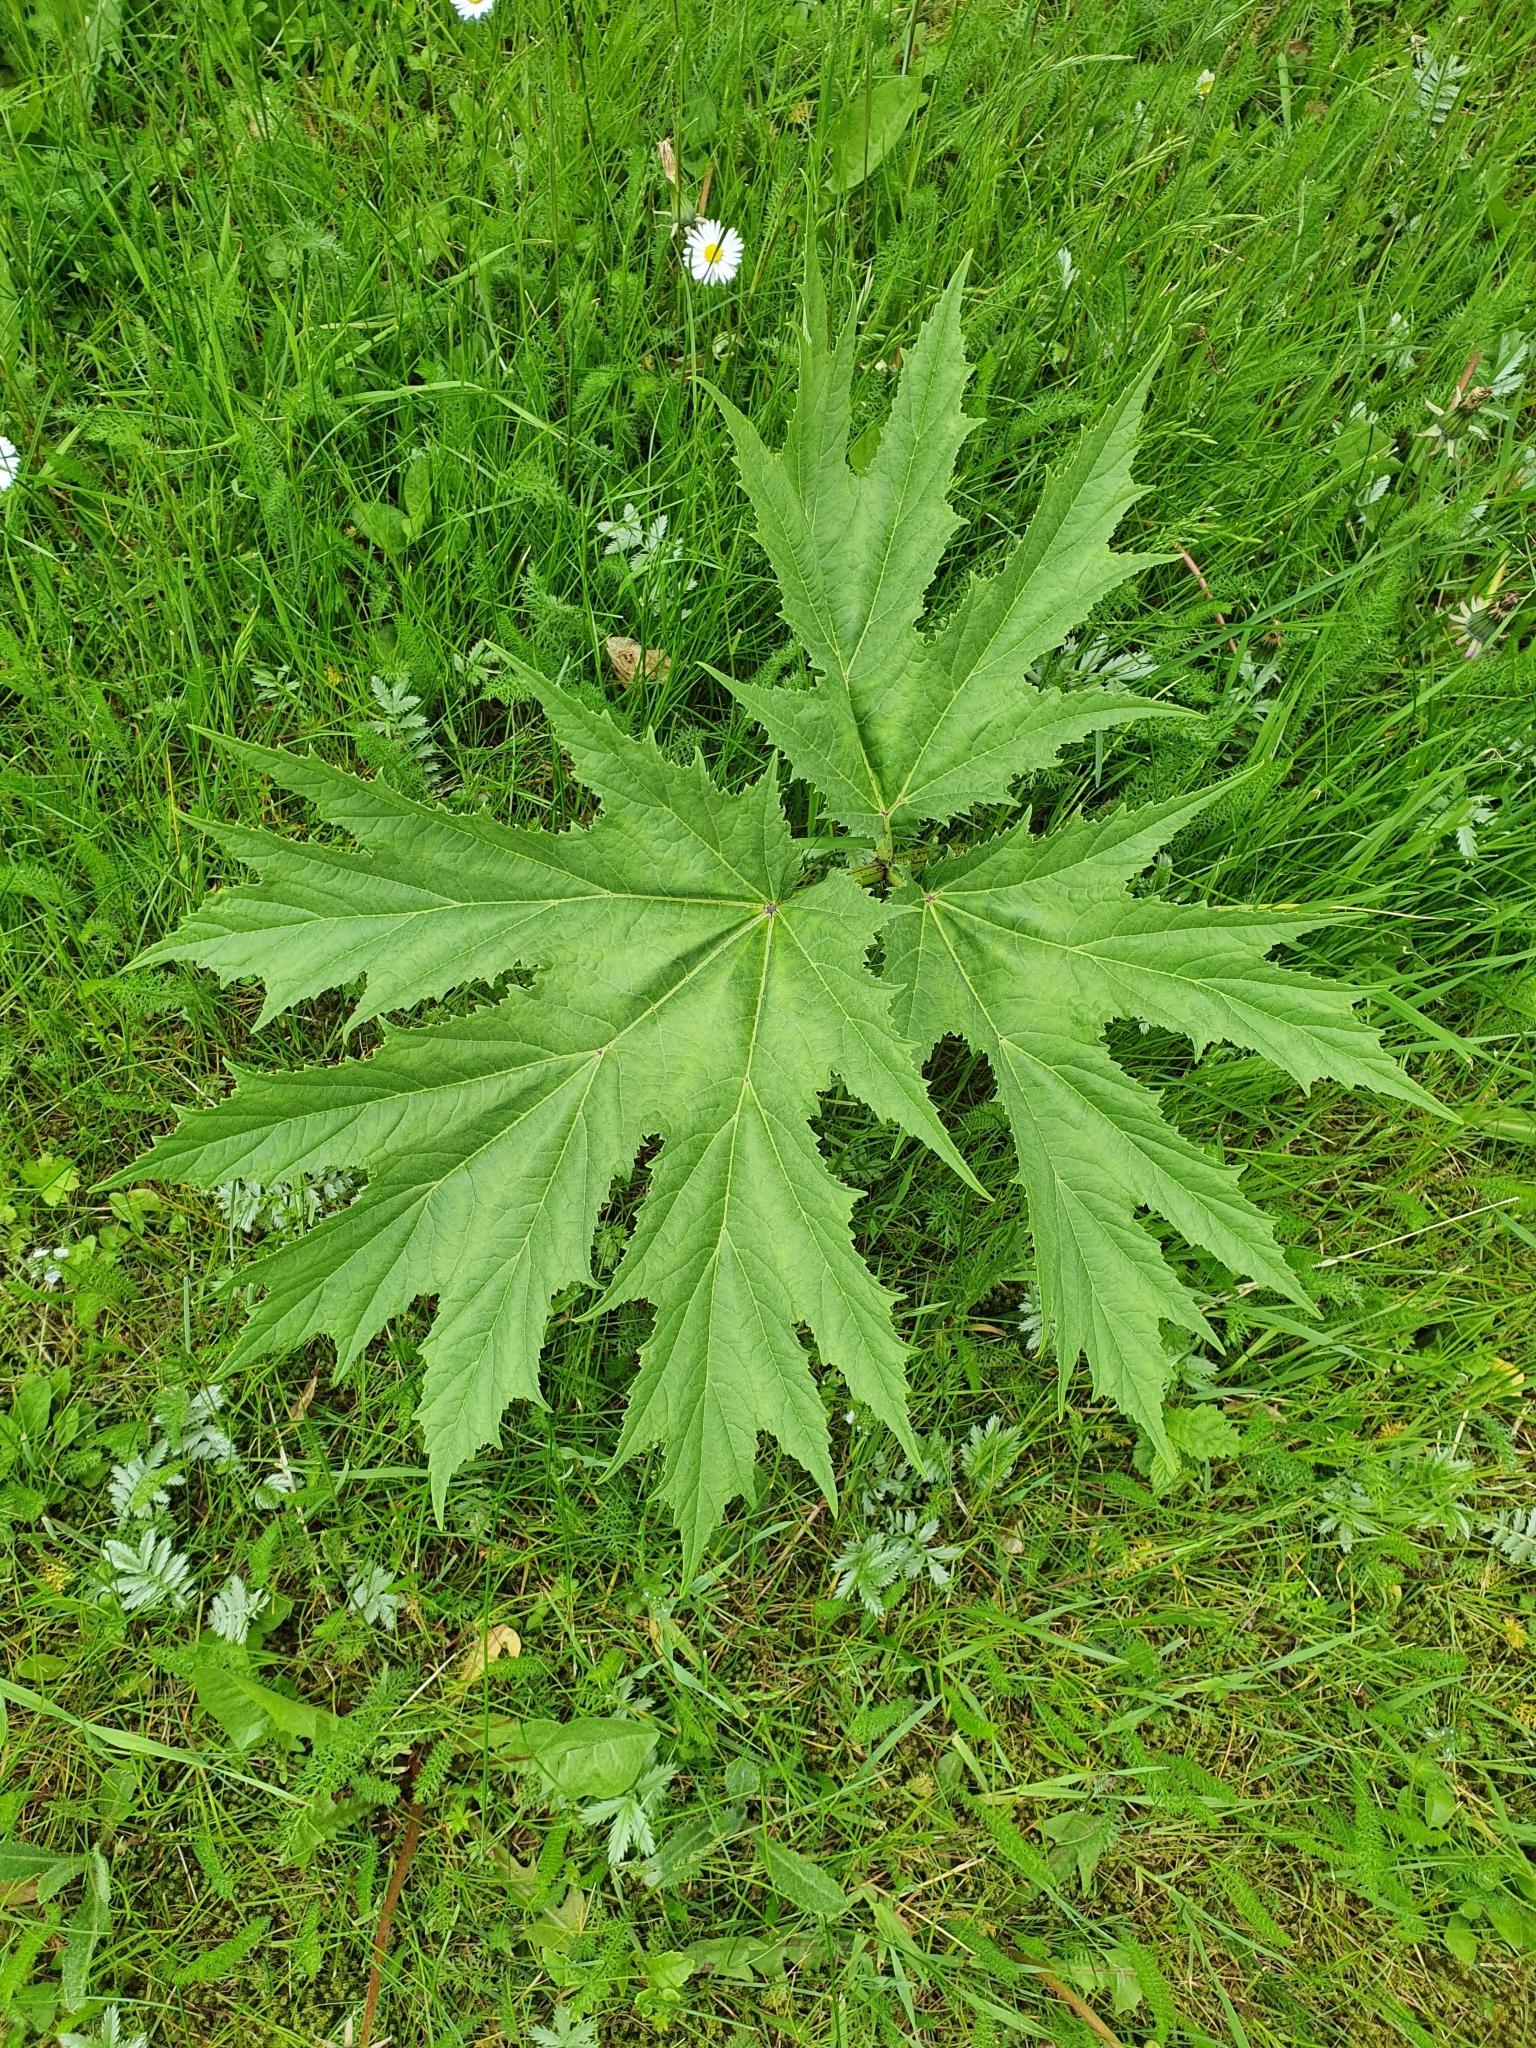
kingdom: Plantae
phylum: Tracheophyta
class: Magnoliopsida
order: Apiales
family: Apiaceae
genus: Heracleum
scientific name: Heracleum mantegazzianum
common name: Giant hogweed
